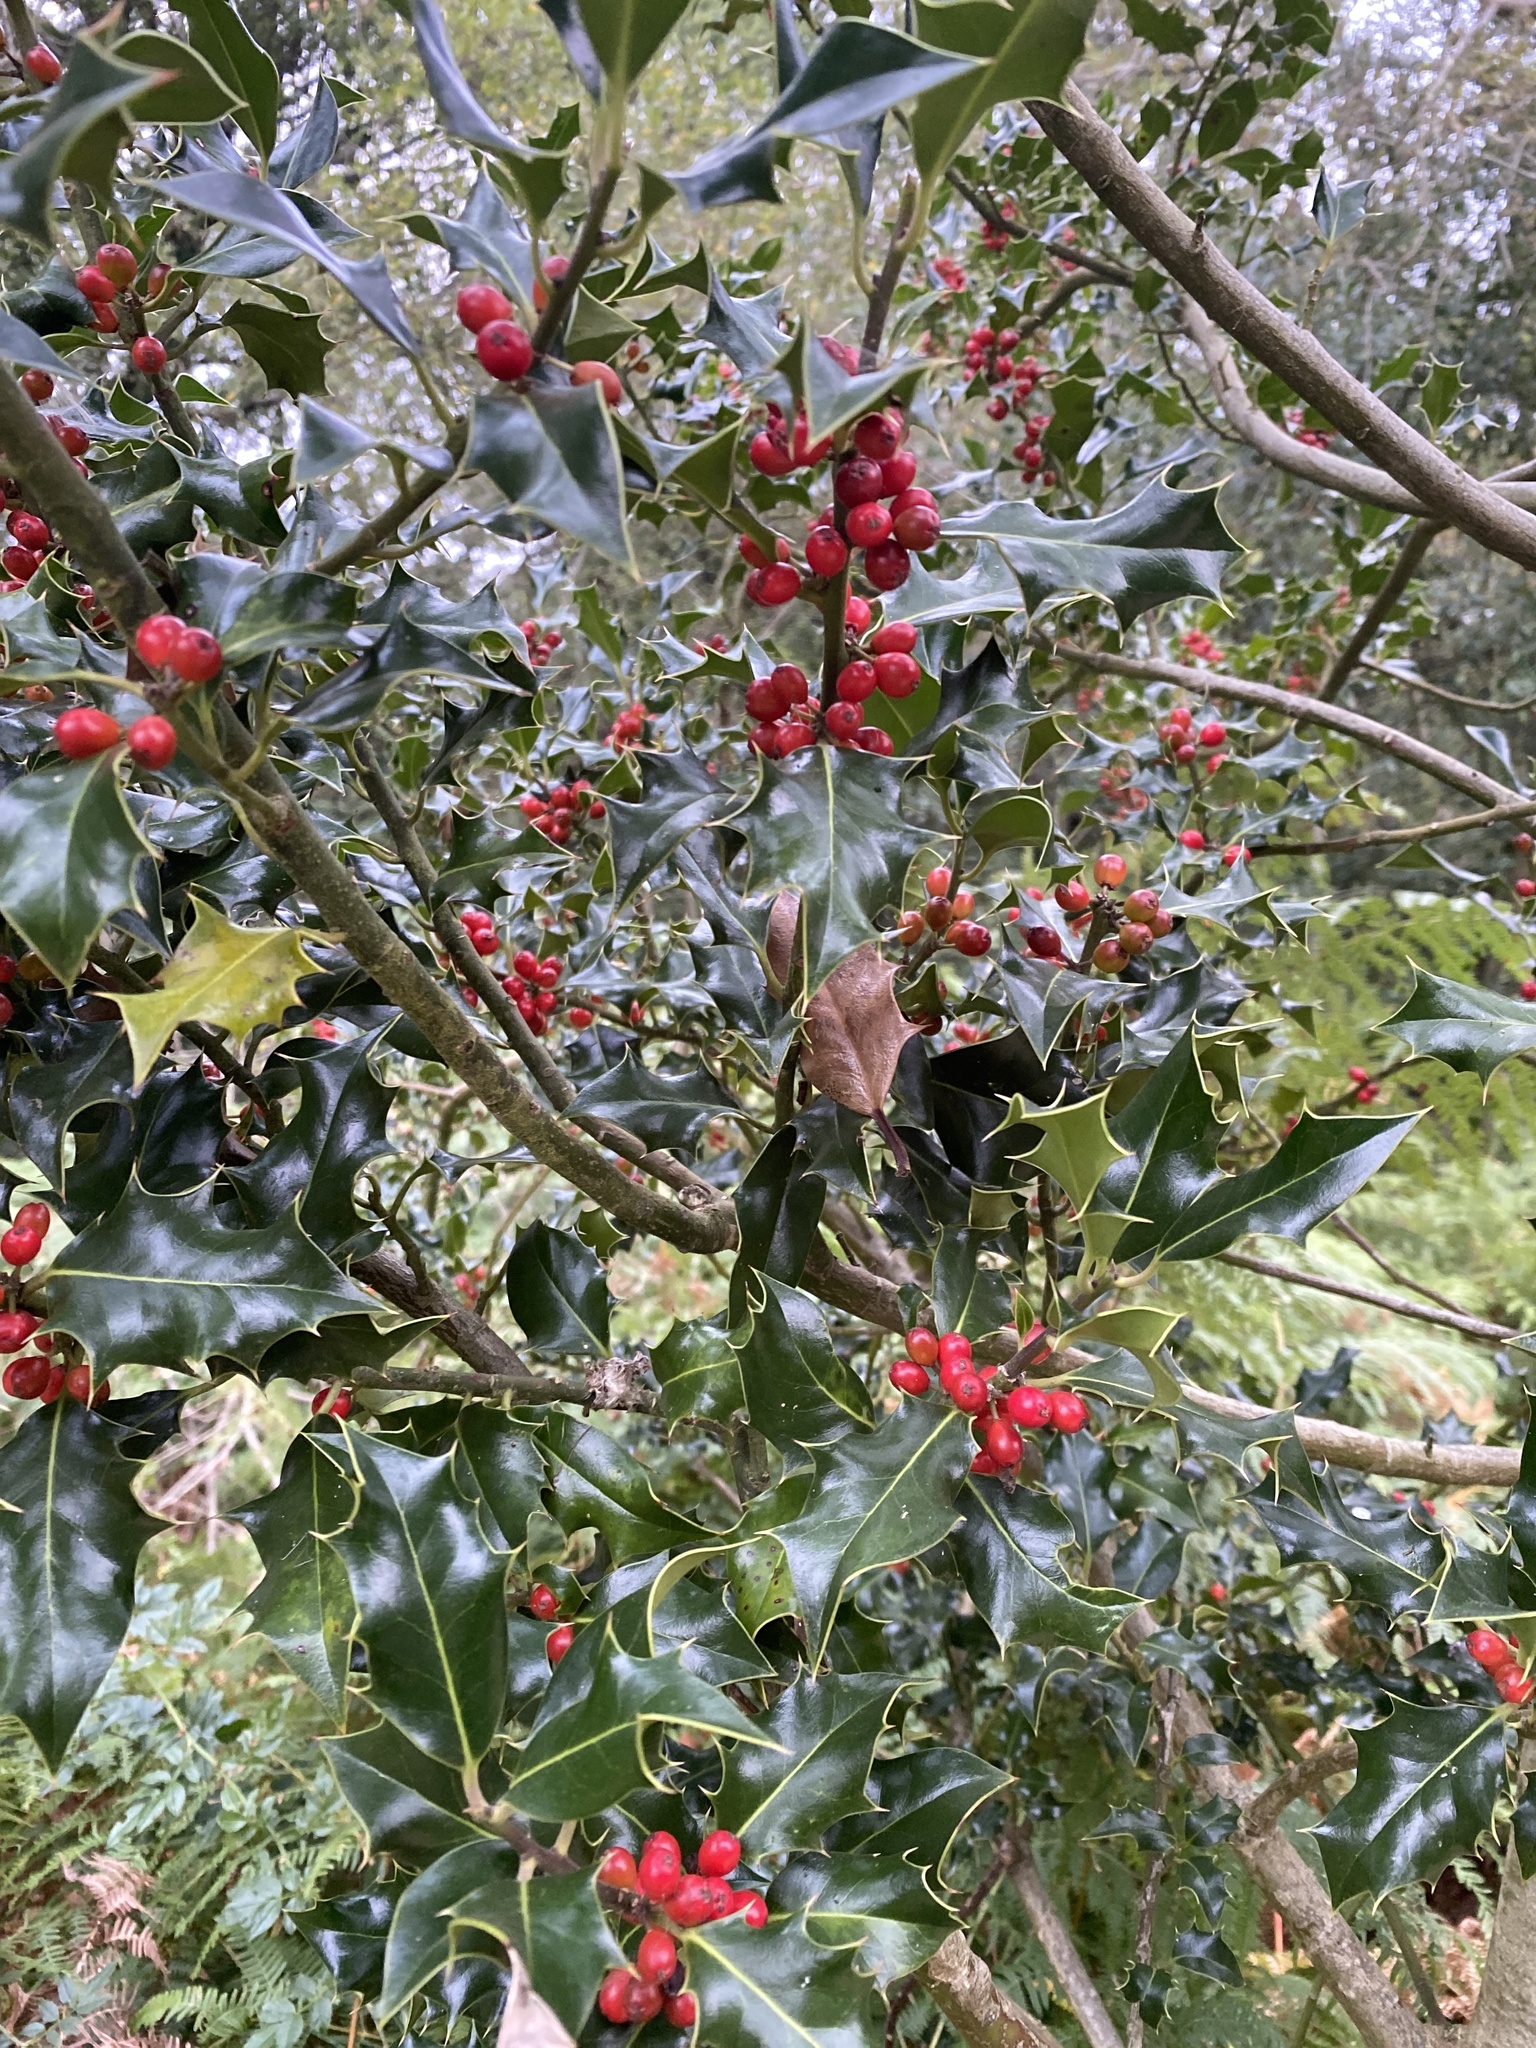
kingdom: Plantae
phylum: Tracheophyta
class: Magnoliopsida
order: Aquifoliales
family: Aquifoliaceae
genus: Ilex
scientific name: Ilex aquifolium
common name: English holly
